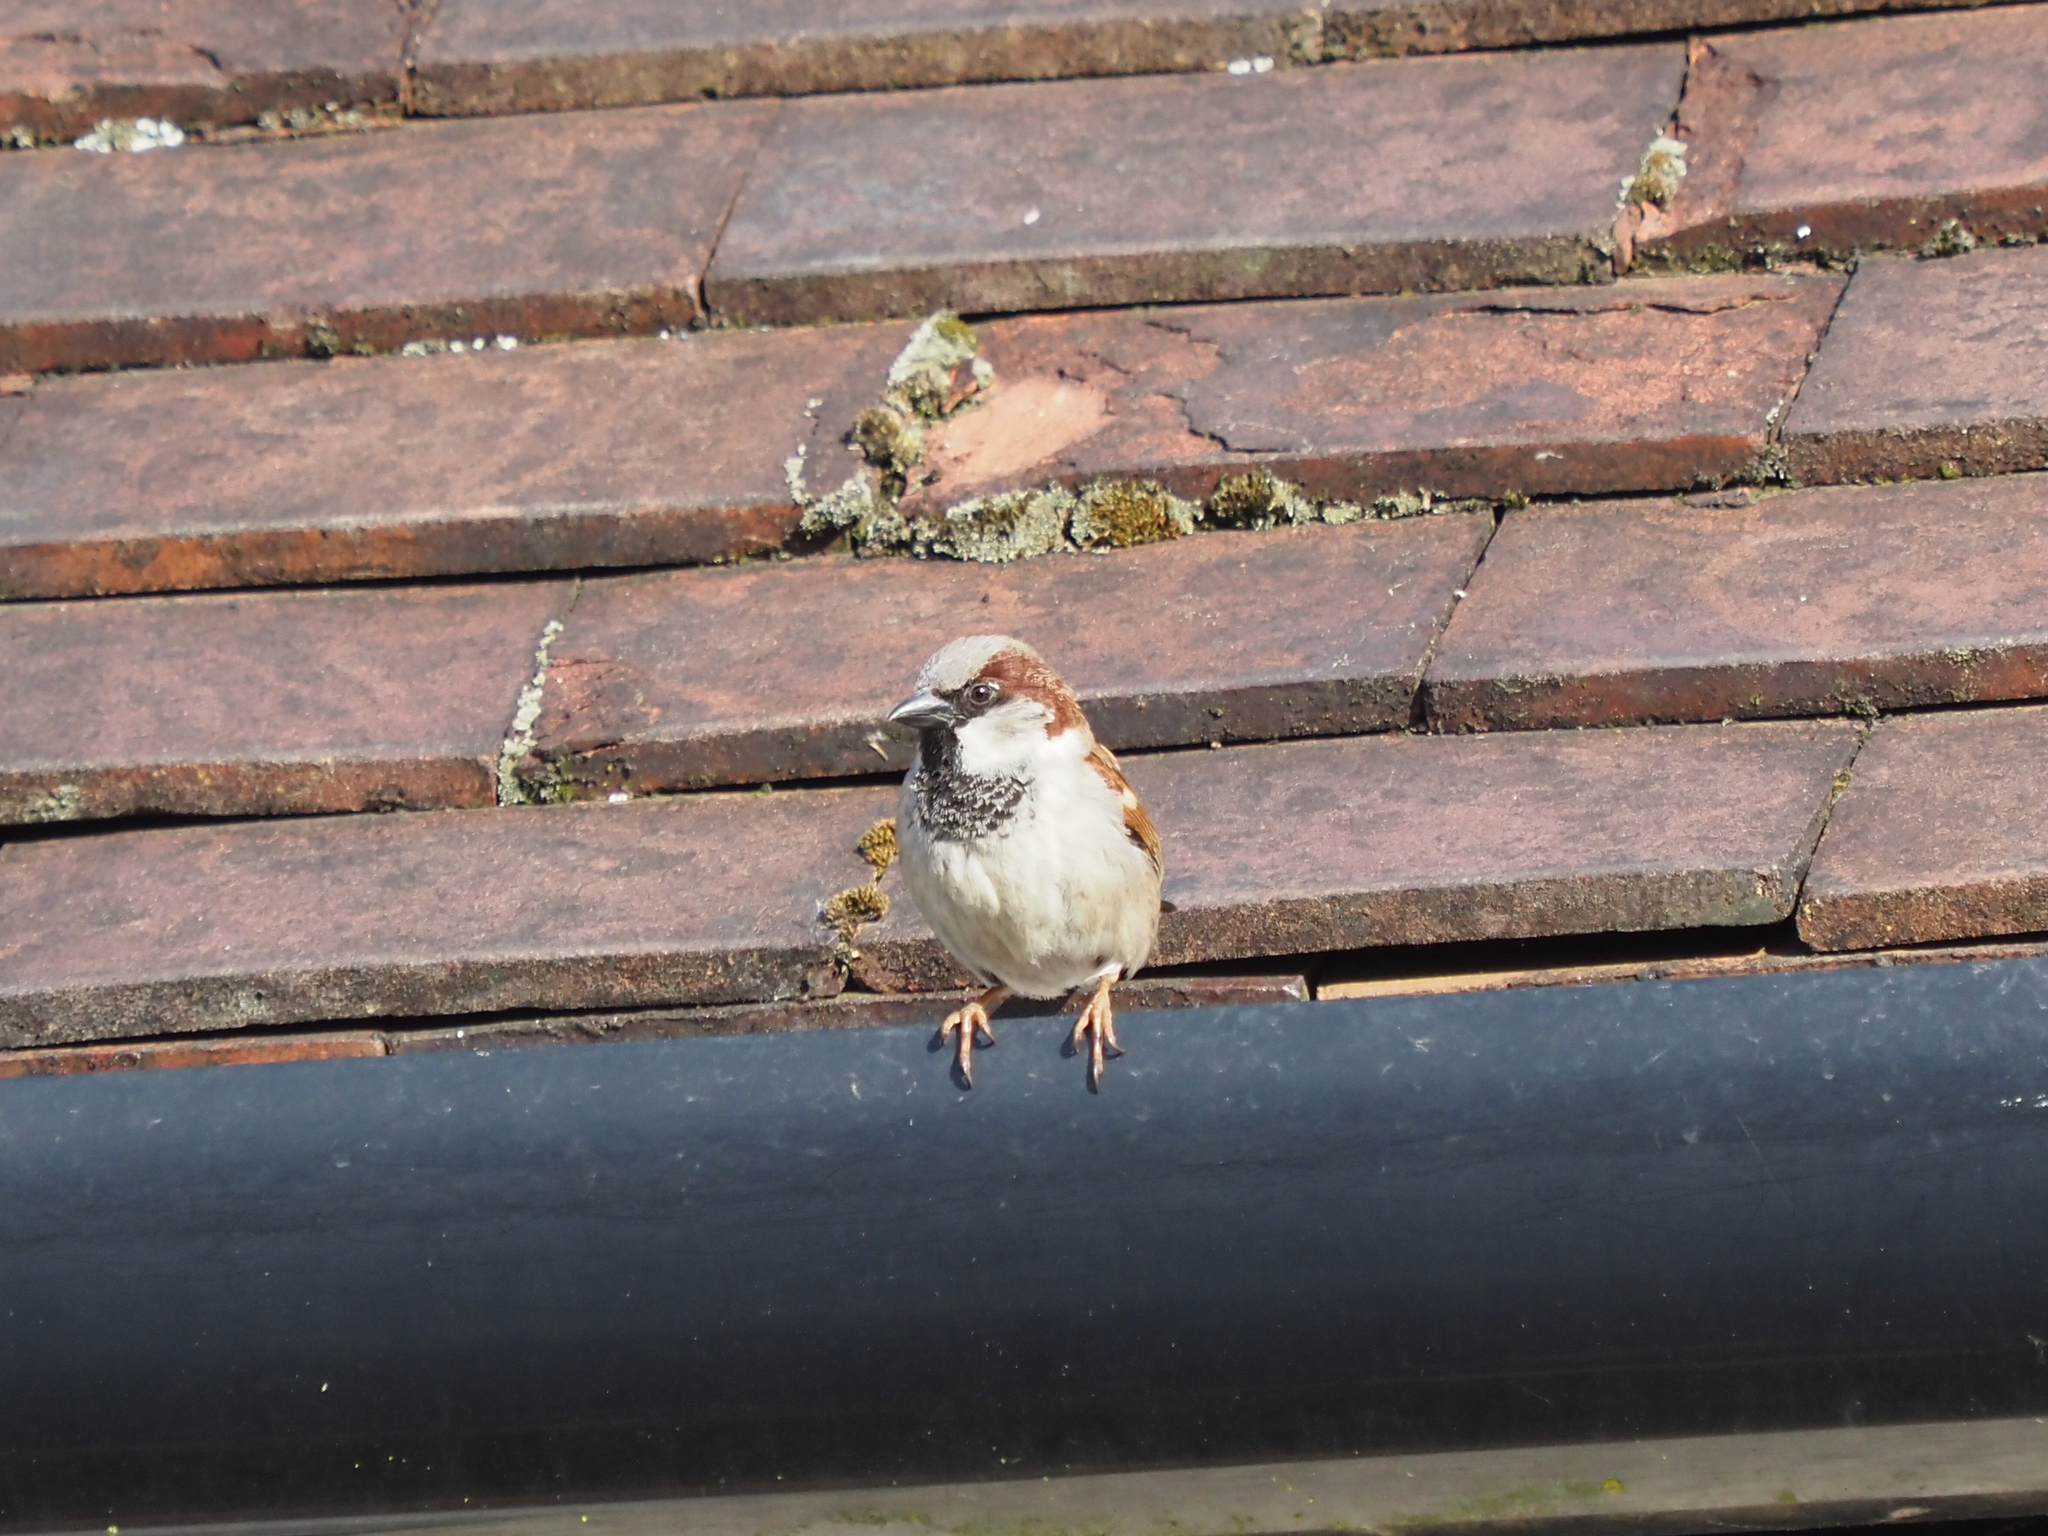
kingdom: Animalia
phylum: Chordata
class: Aves
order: Passeriformes
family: Passeridae
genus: Passer
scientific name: Passer domesticus
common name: House sparrow
